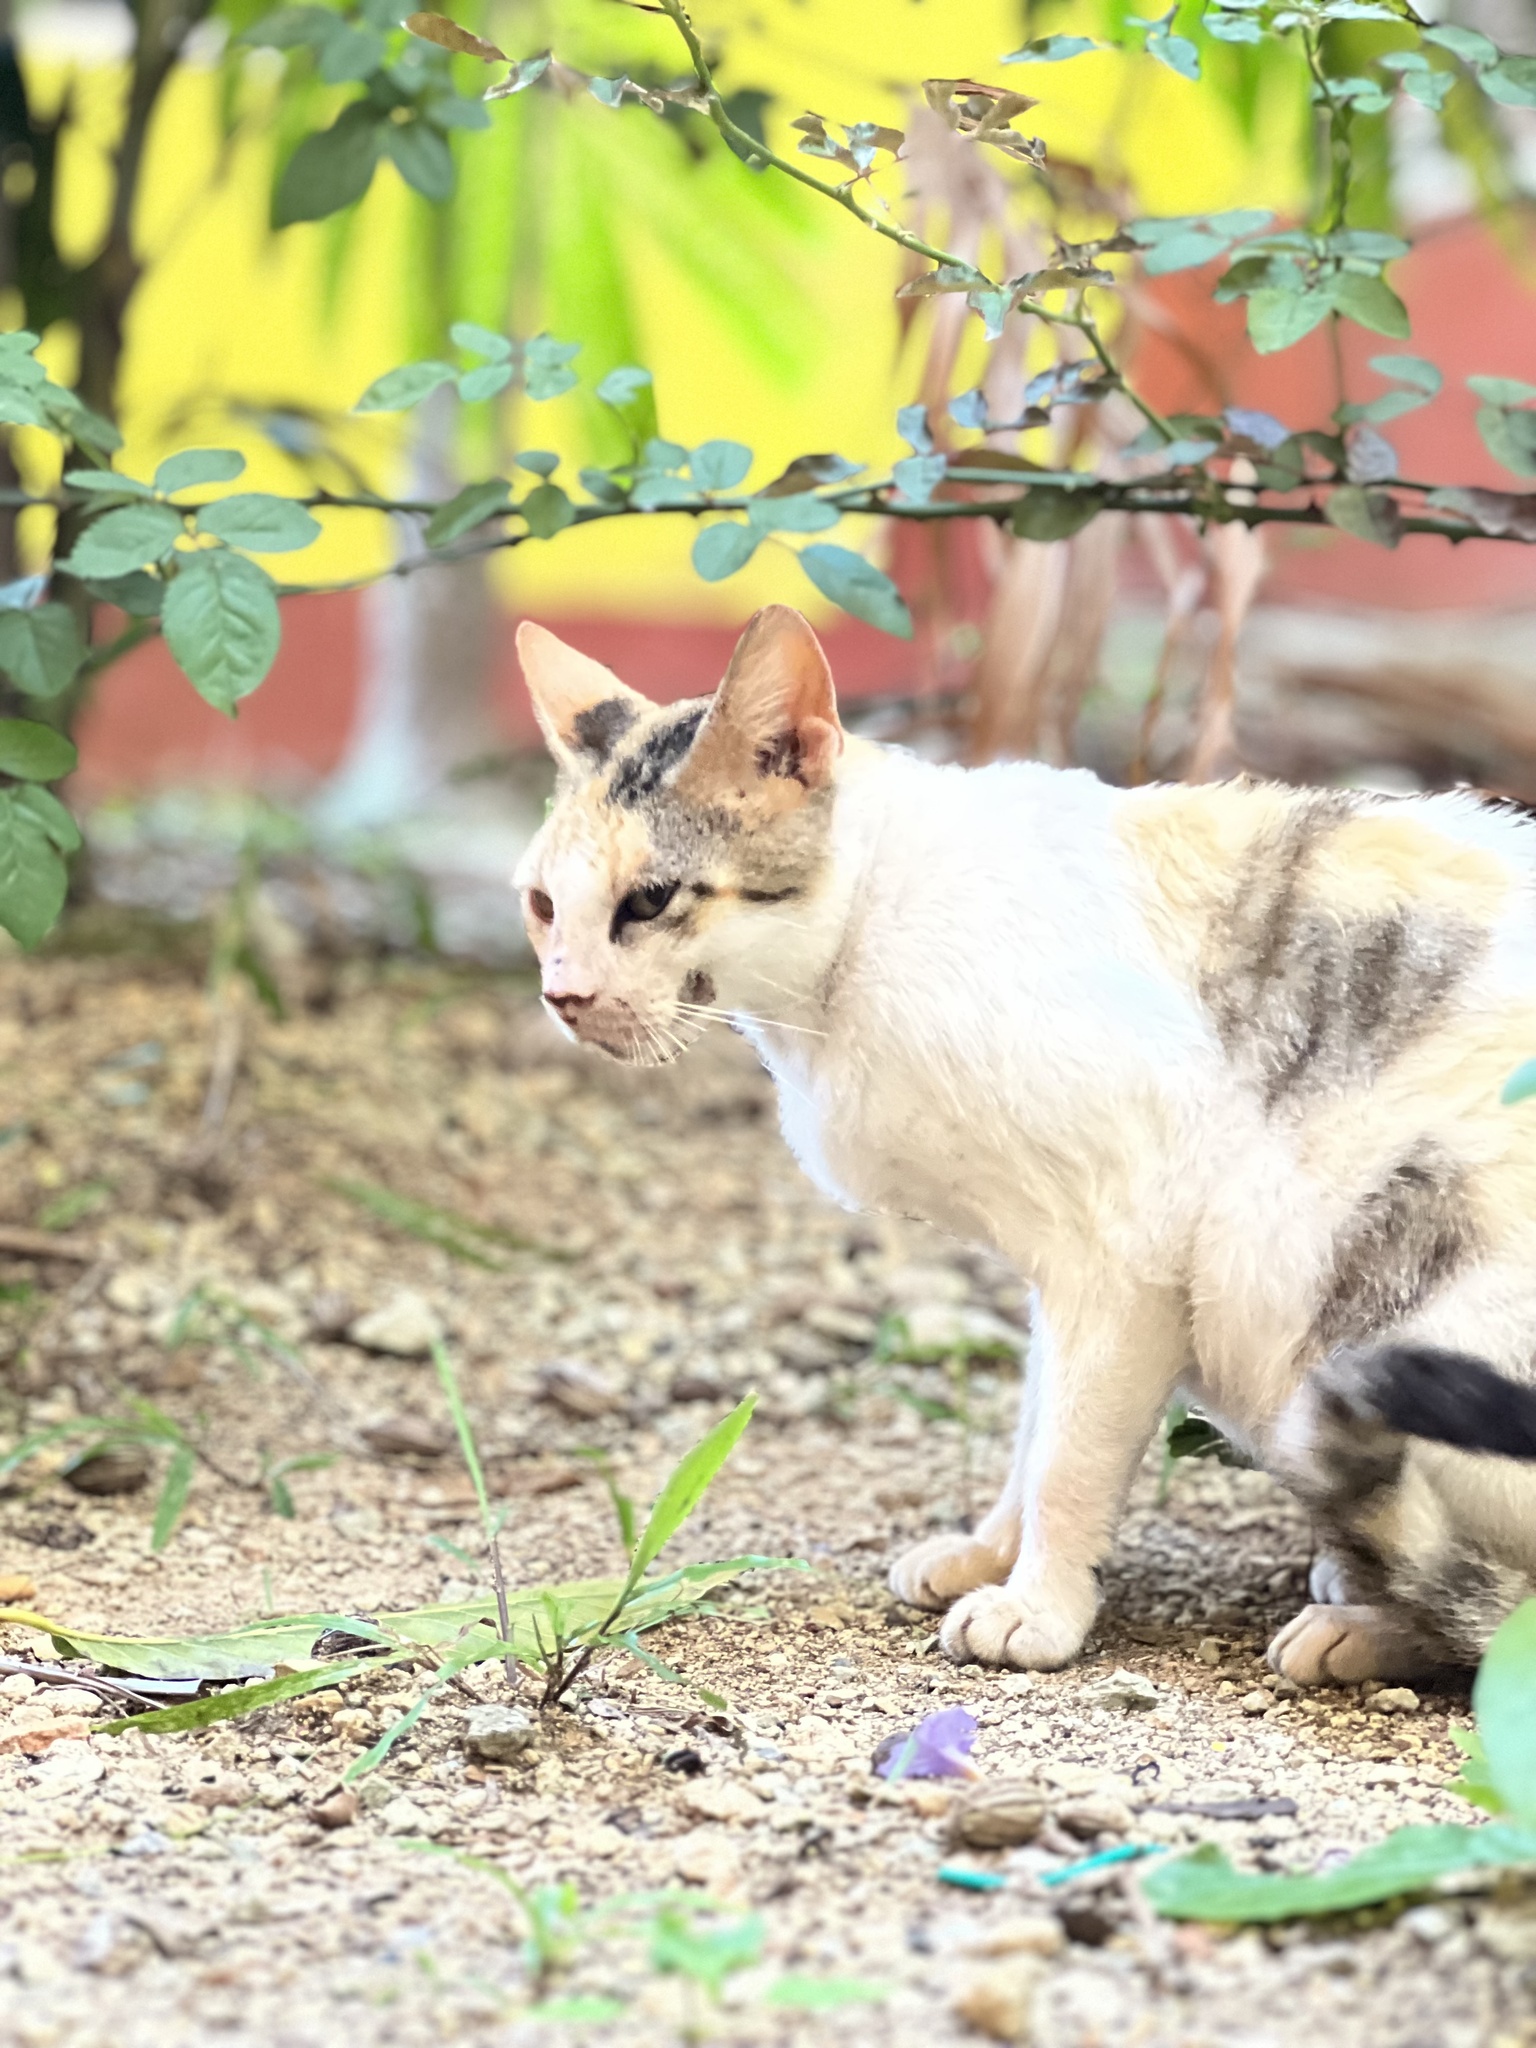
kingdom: Animalia
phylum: Chordata
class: Mammalia
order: Carnivora
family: Felidae
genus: Felis
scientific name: Felis catus
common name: Domestic cat
